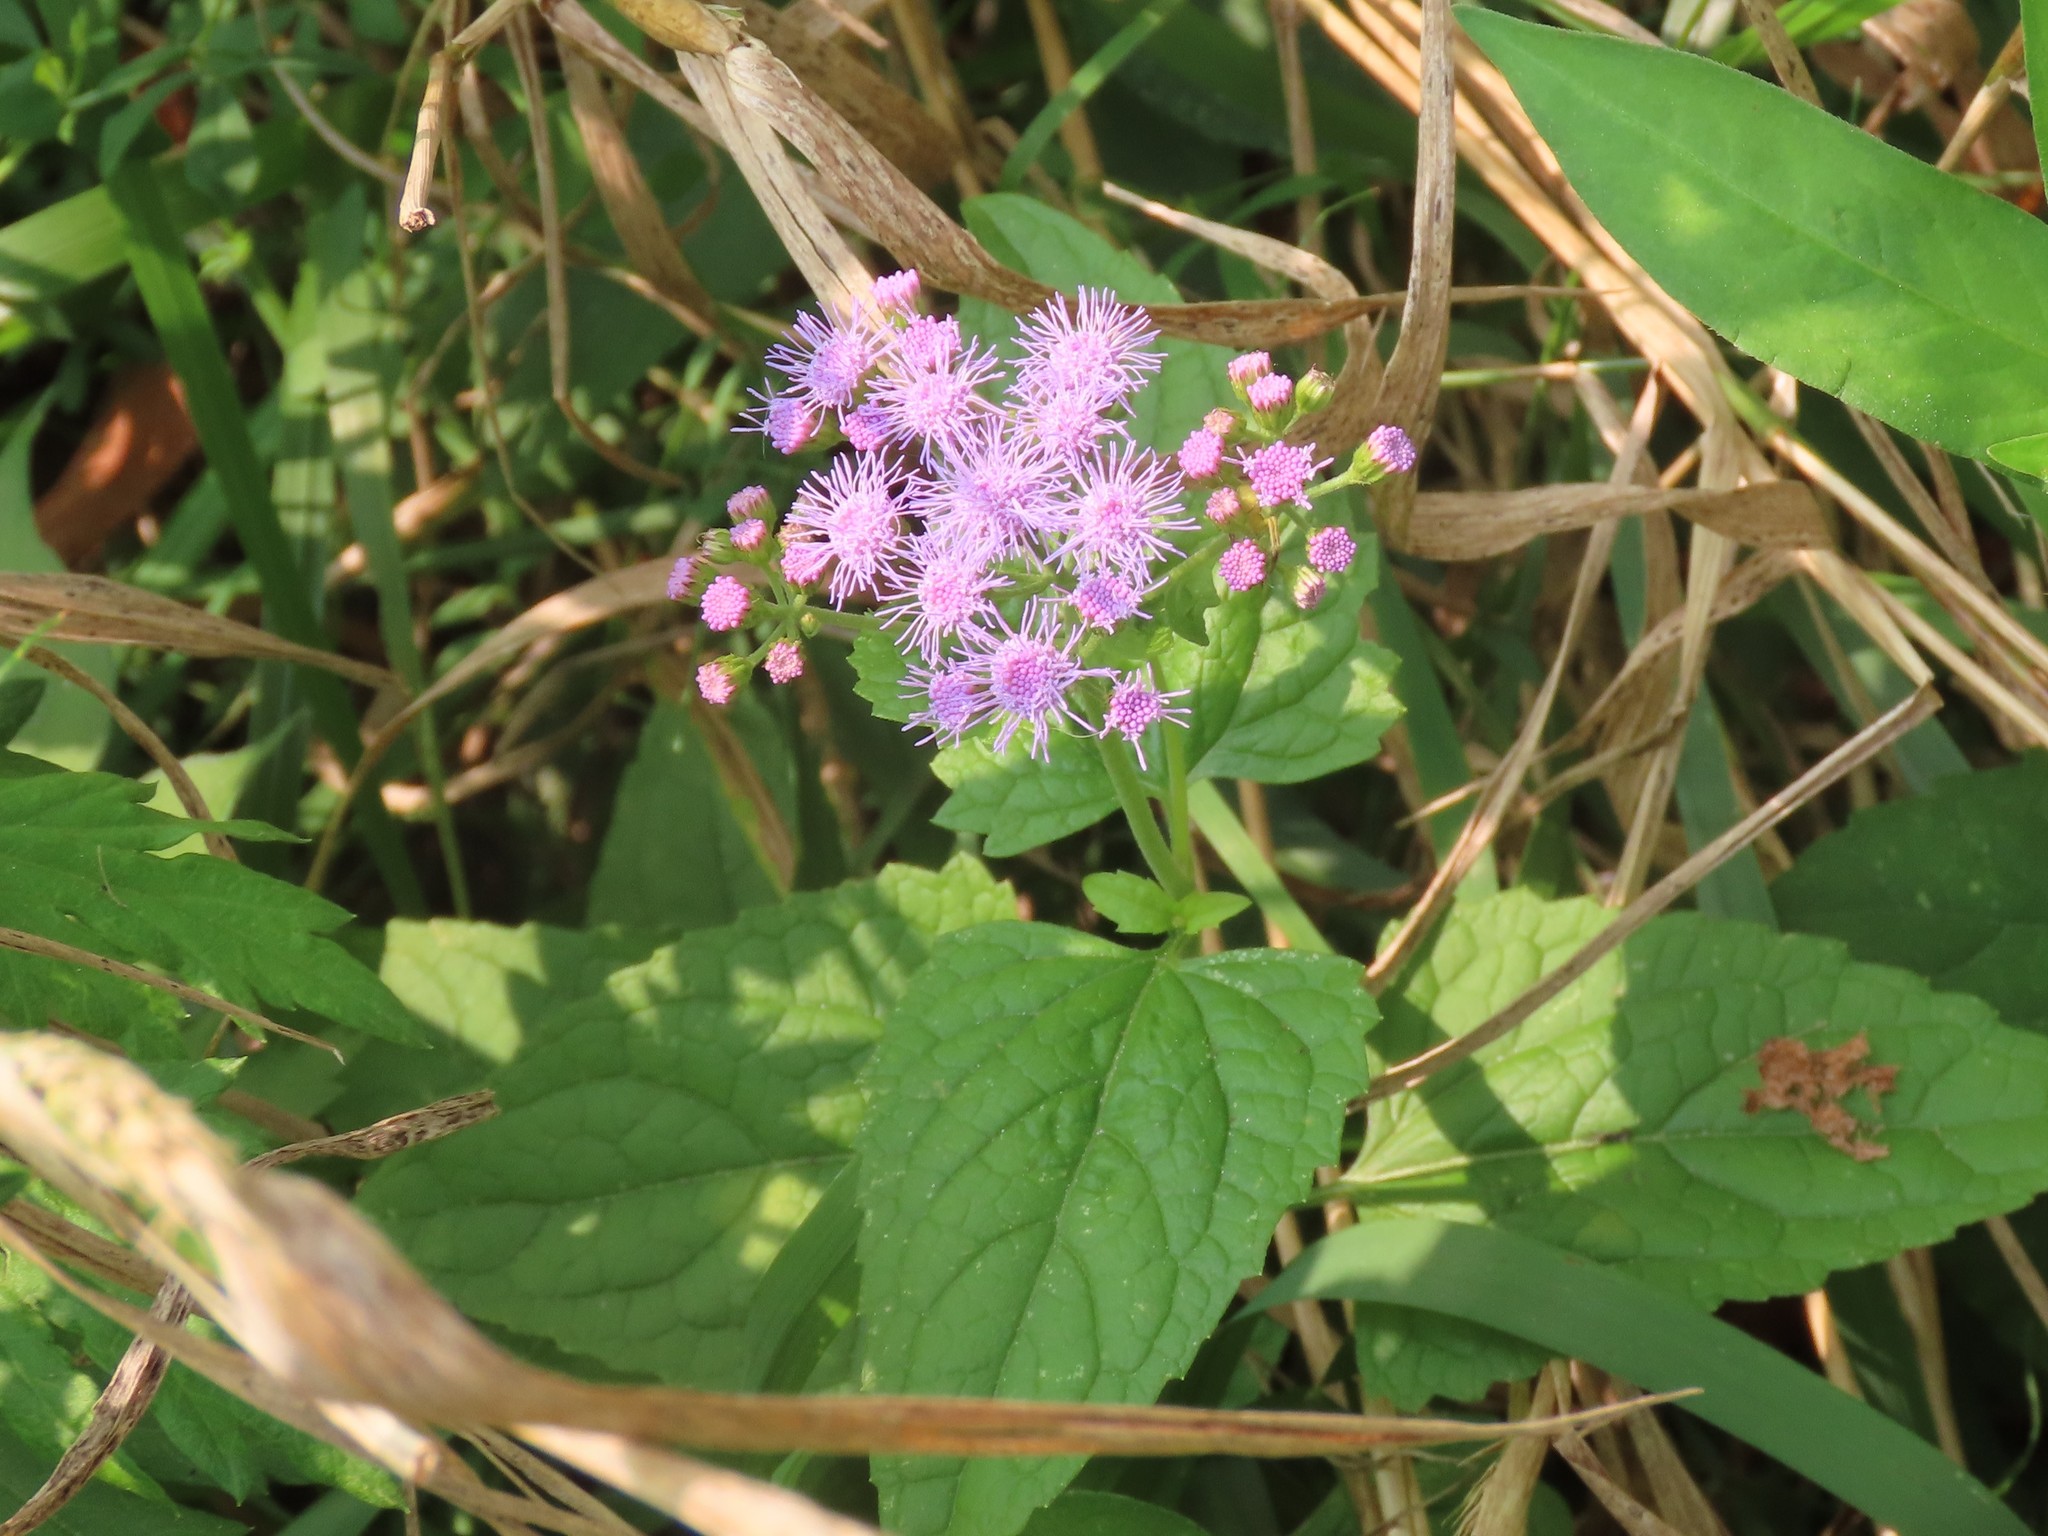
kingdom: Plantae
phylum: Tracheophyta
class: Magnoliopsida
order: Asterales
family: Asteraceae
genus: Conoclinium
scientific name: Conoclinium coelestinum
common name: Blue mistflower
